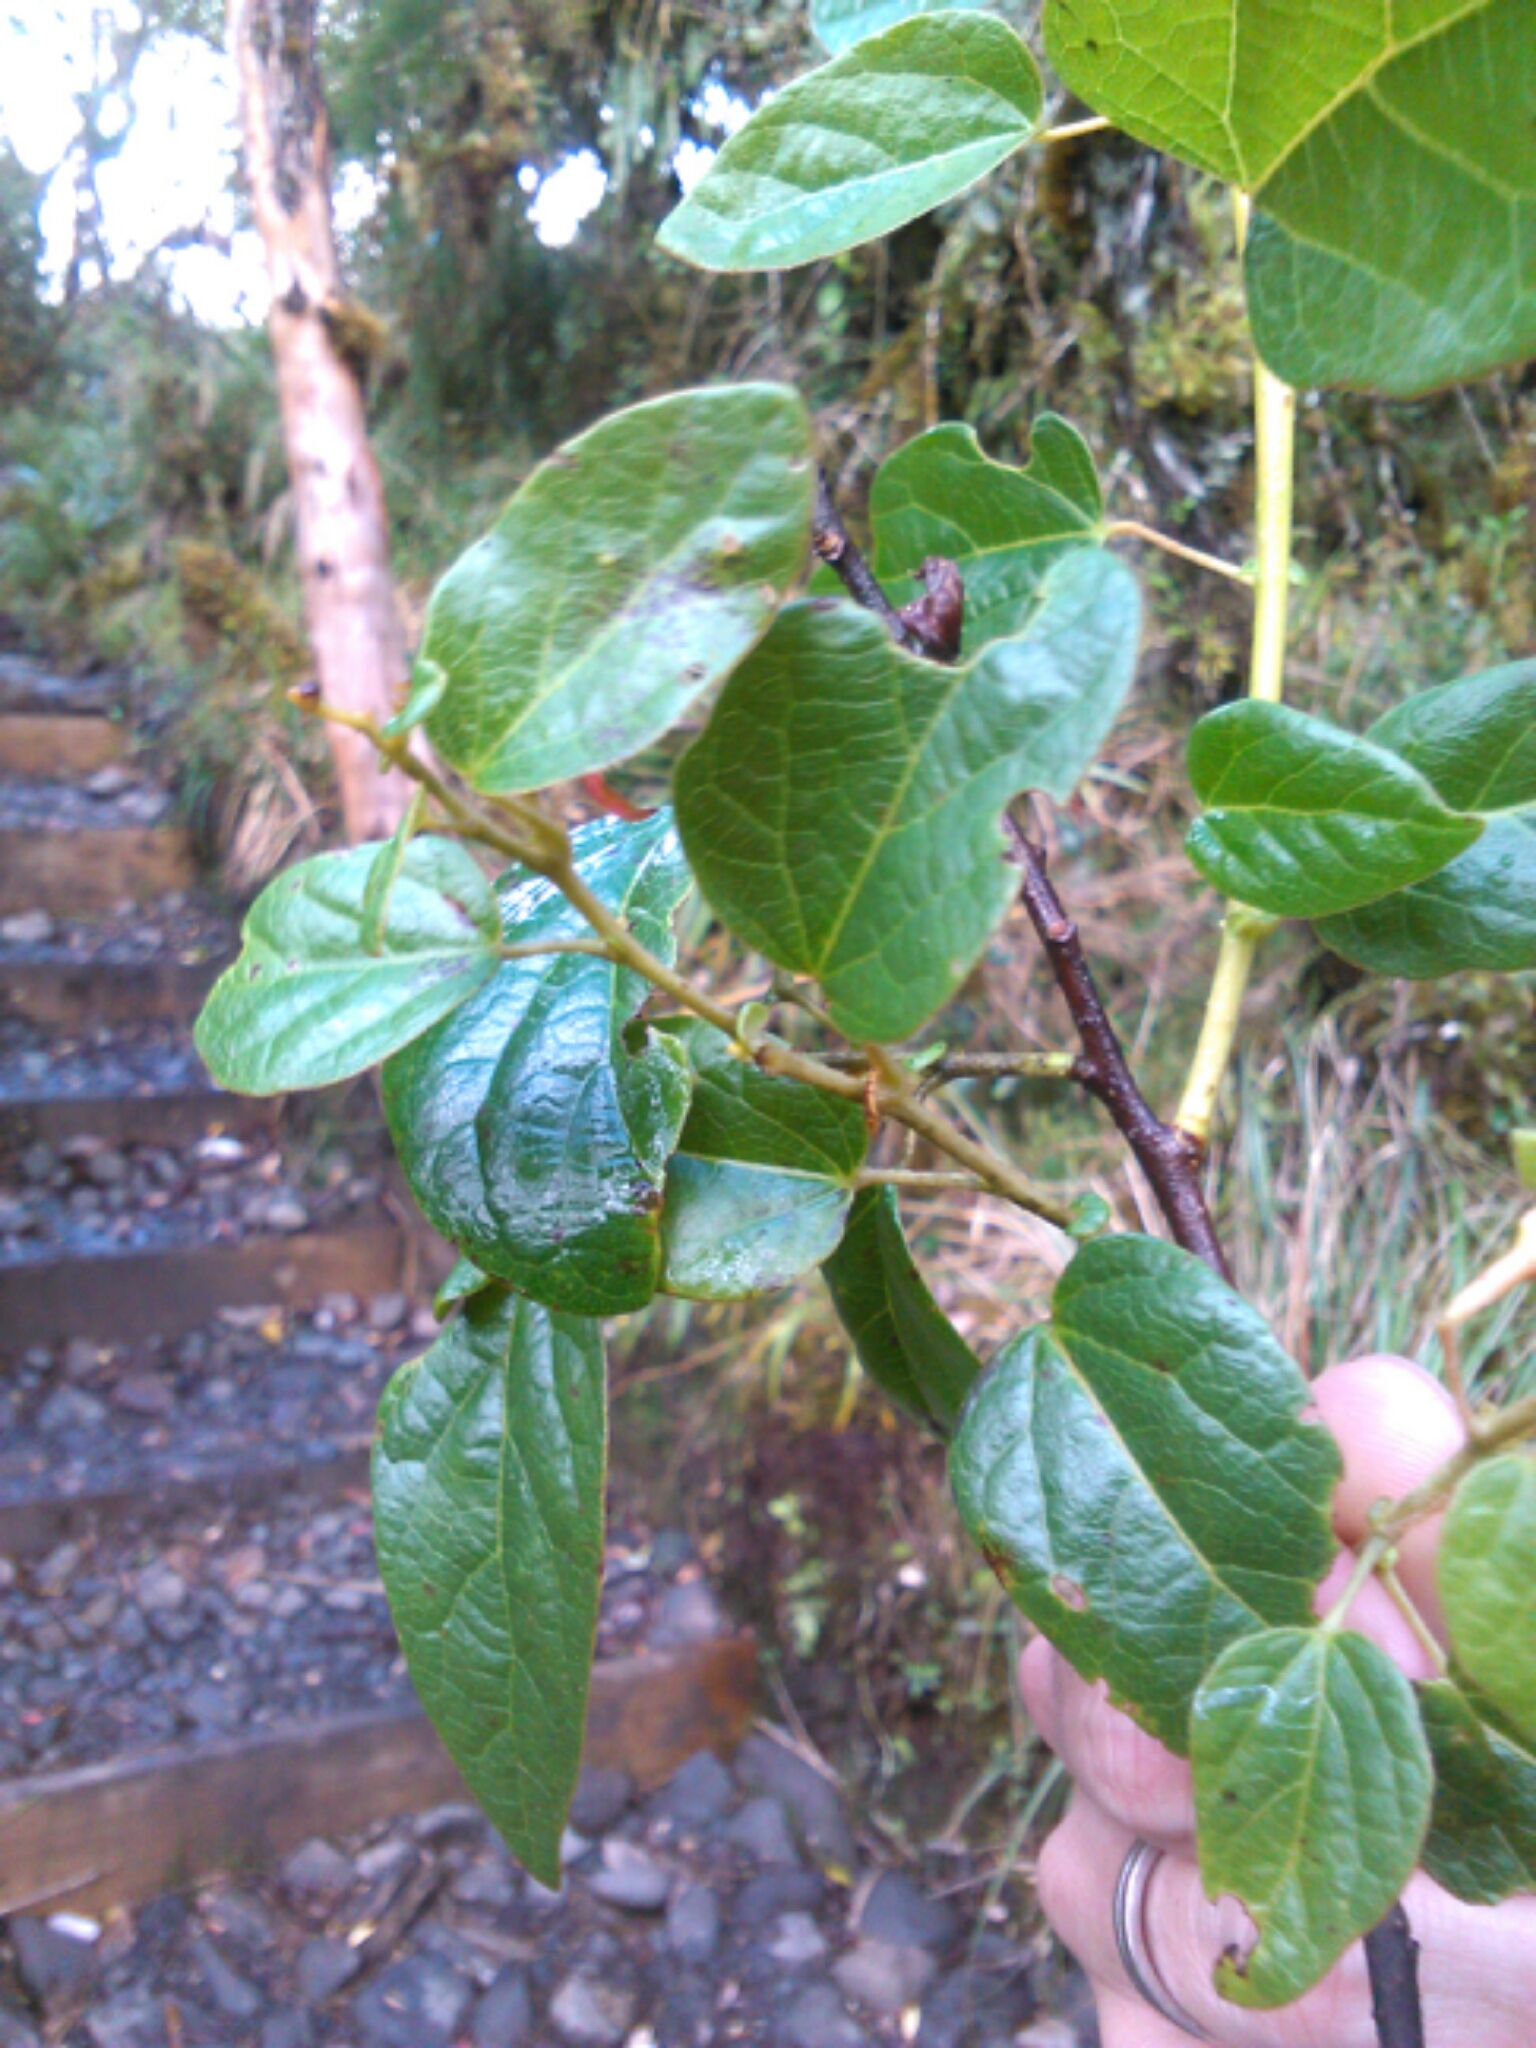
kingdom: Plantae
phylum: Tracheophyta
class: Magnoliopsida
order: Oxalidales
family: Elaeocarpaceae
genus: Vallea
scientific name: Vallea stipularis
